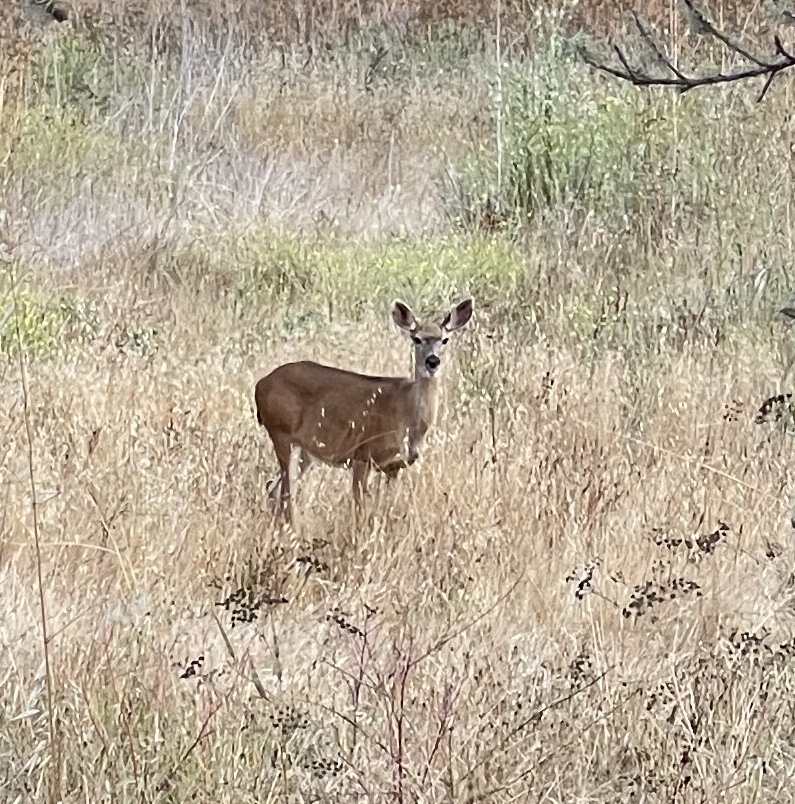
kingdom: Animalia
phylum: Chordata
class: Mammalia
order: Artiodactyla
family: Cervidae
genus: Odocoileus
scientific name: Odocoileus hemionus
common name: Mule deer
